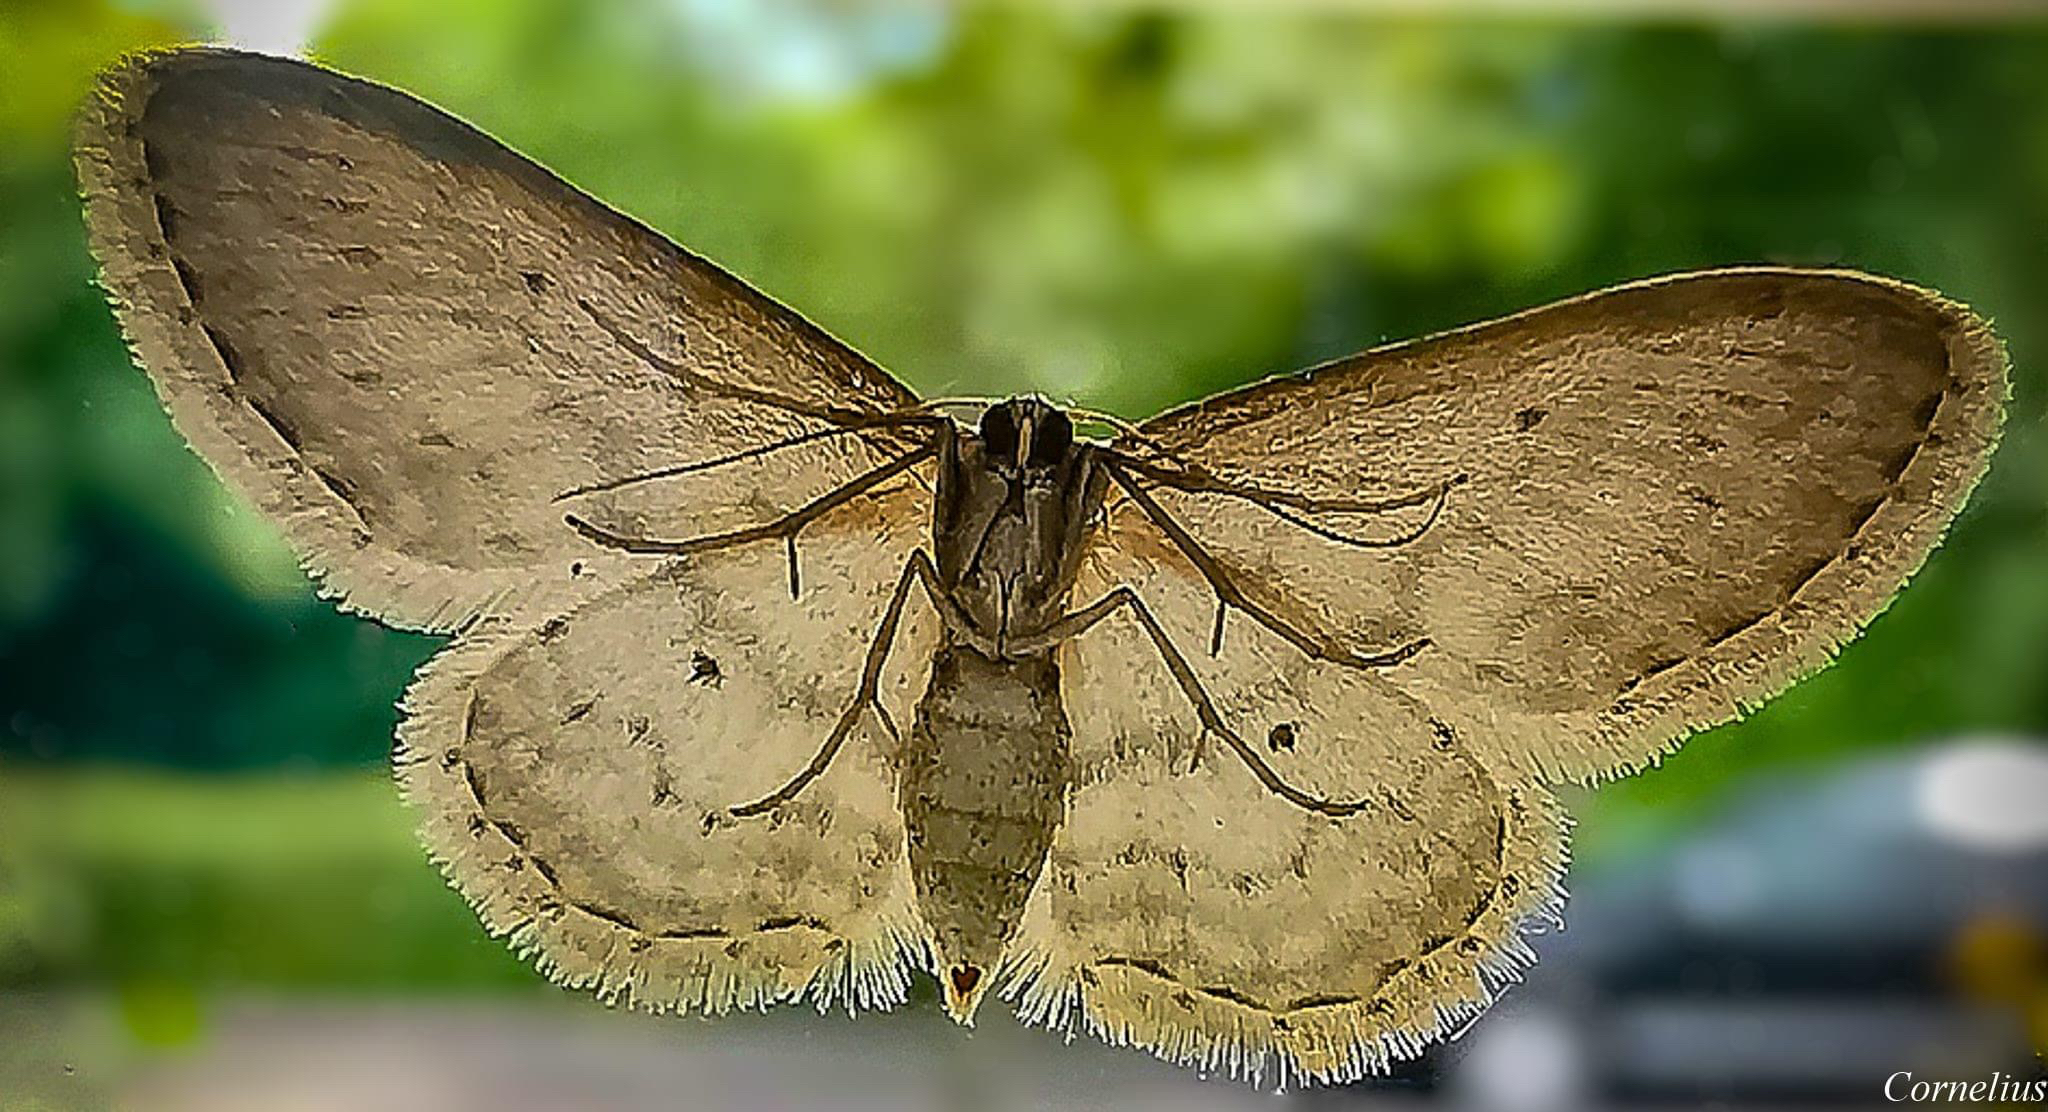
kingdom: Animalia
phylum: Arthropoda
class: Insecta
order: Lepidoptera
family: Geometridae
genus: Idaea
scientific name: Idaea seriata
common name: Small dusty wave
